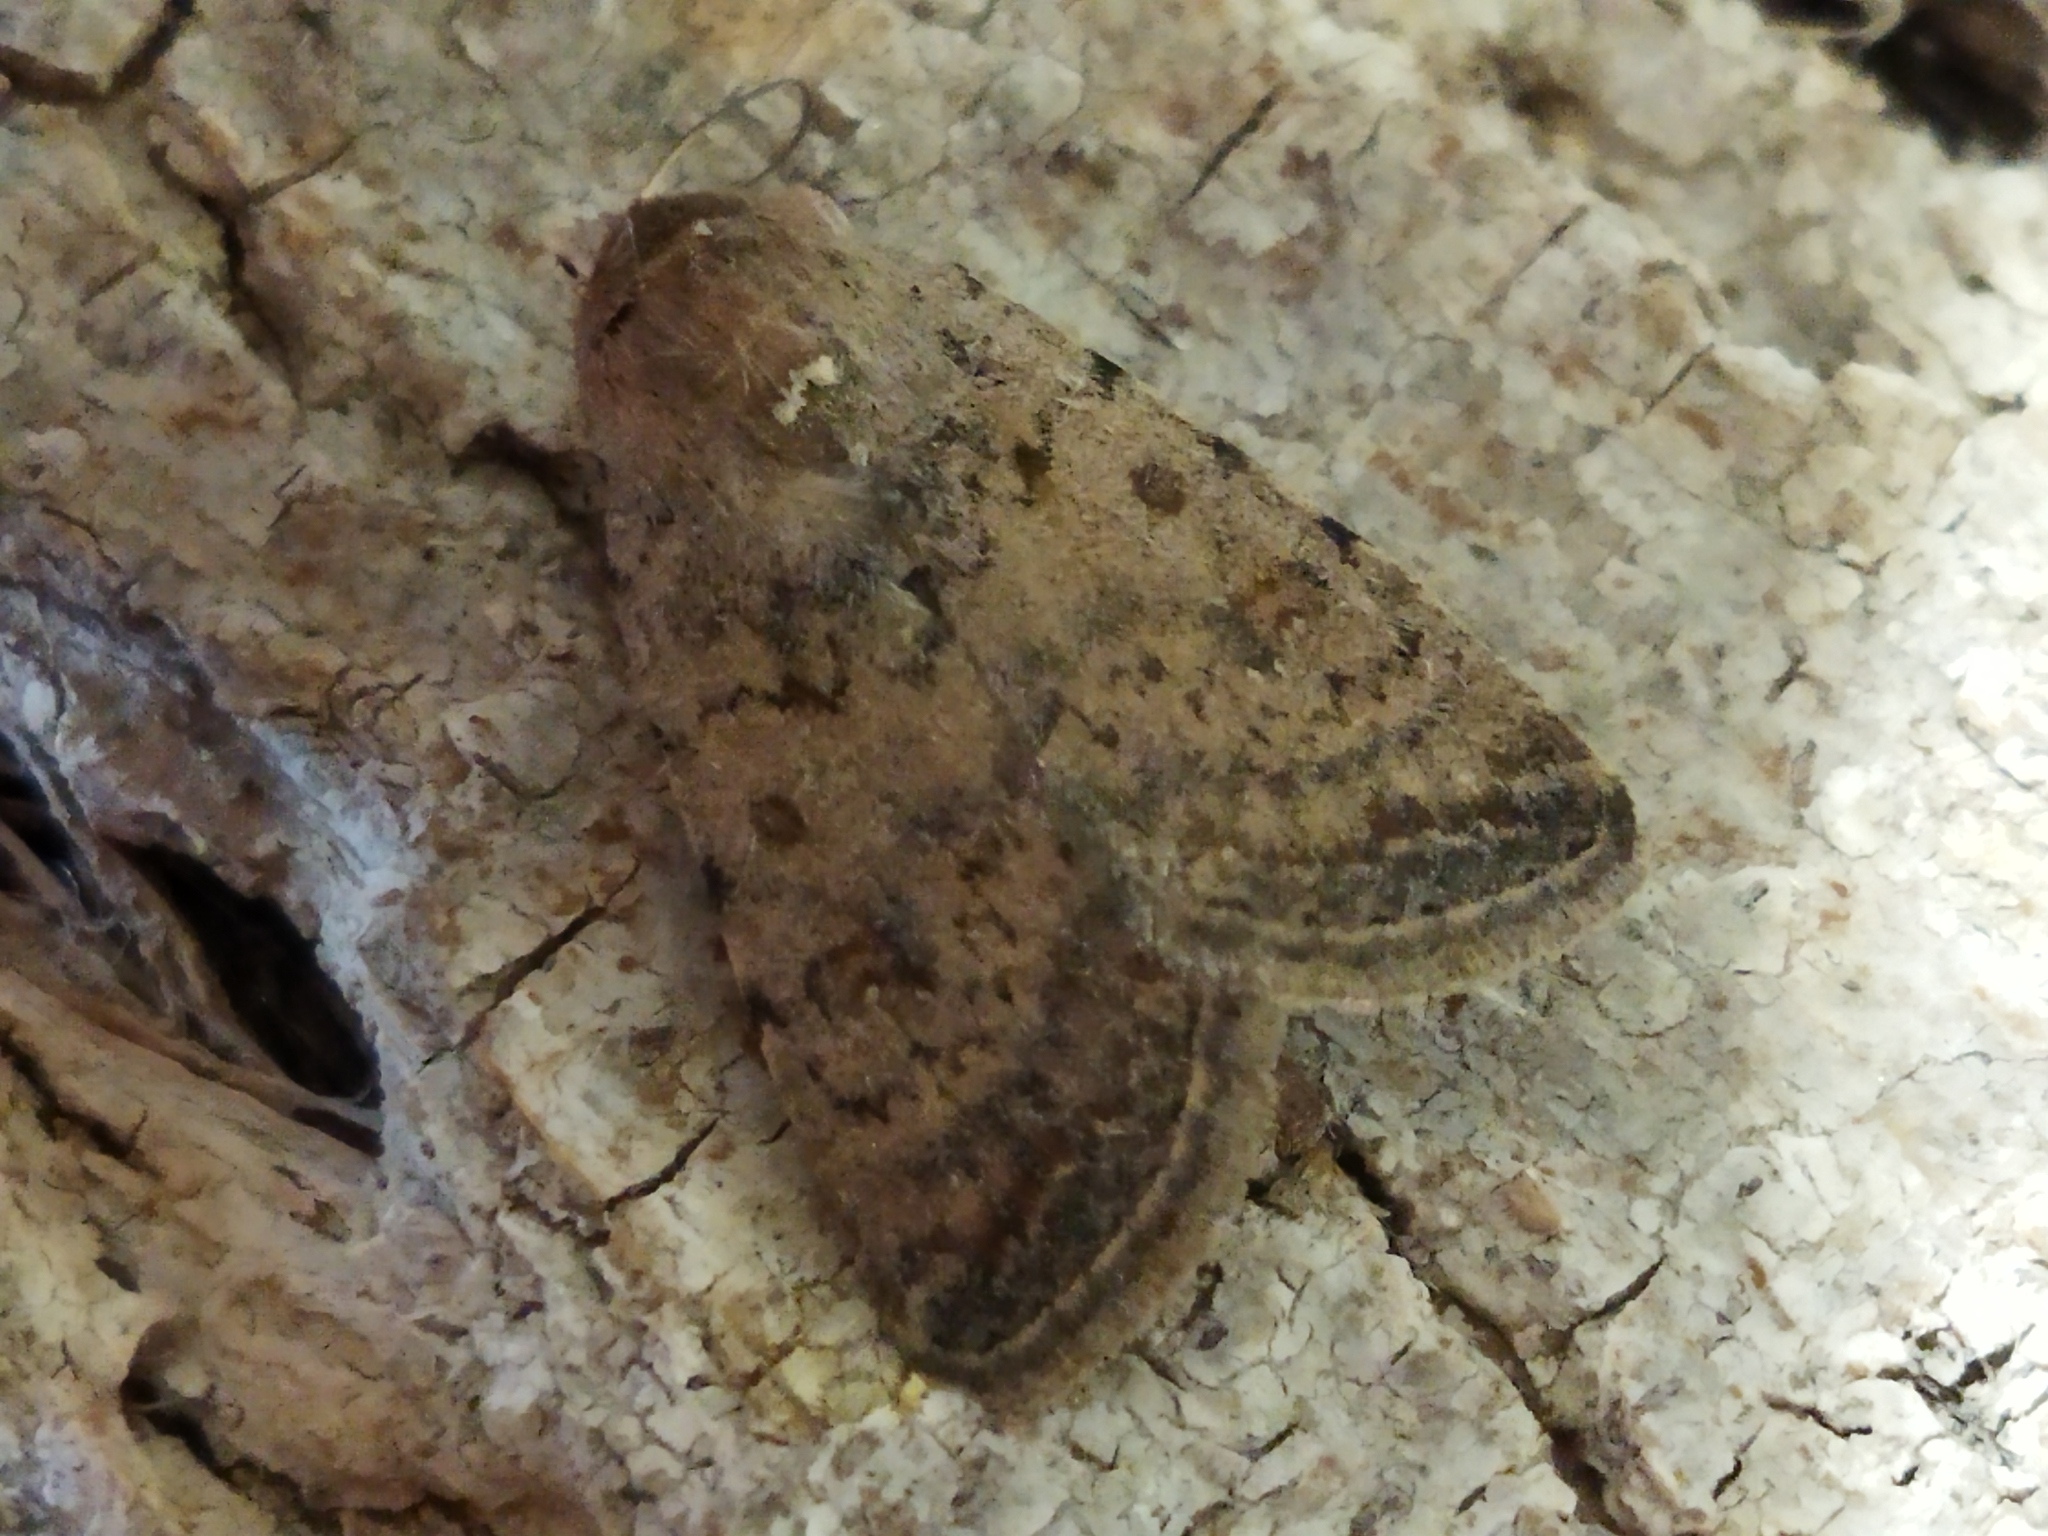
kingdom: Animalia
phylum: Arthropoda
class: Insecta
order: Lepidoptera
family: Noctuidae
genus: Caradrina
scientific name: Caradrina clavipalpis
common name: Pale mottled willow
